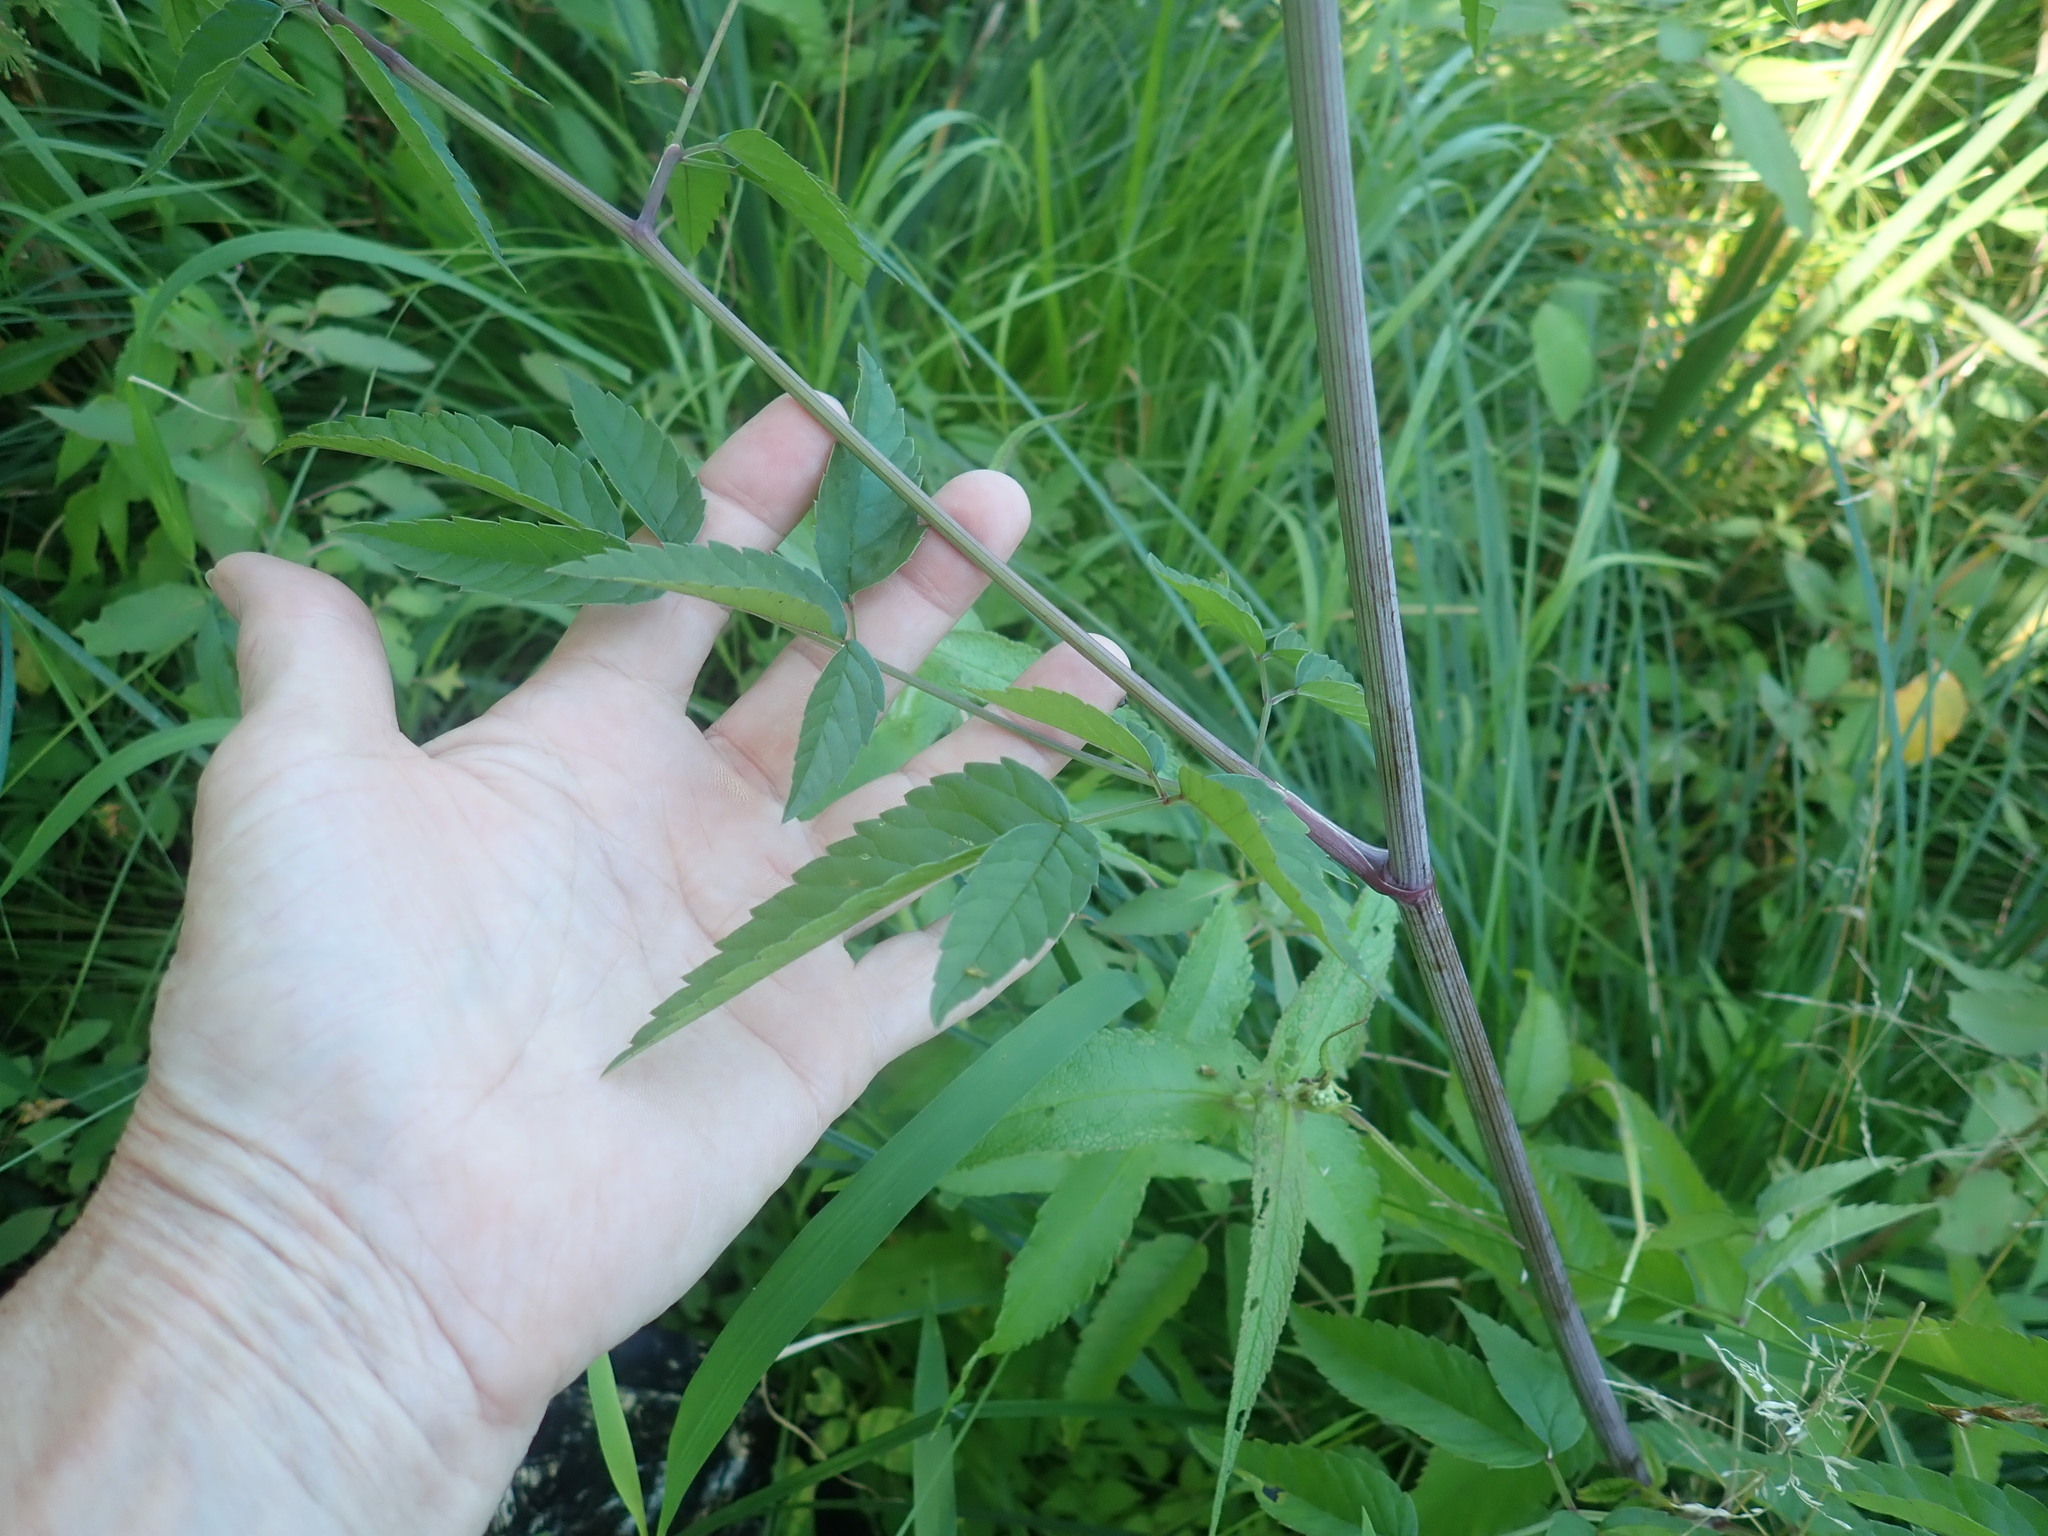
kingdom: Plantae
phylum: Tracheophyta
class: Magnoliopsida
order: Apiales
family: Apiaceae
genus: Cicuta
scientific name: Cicuta maculata
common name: Spotted cowbane
